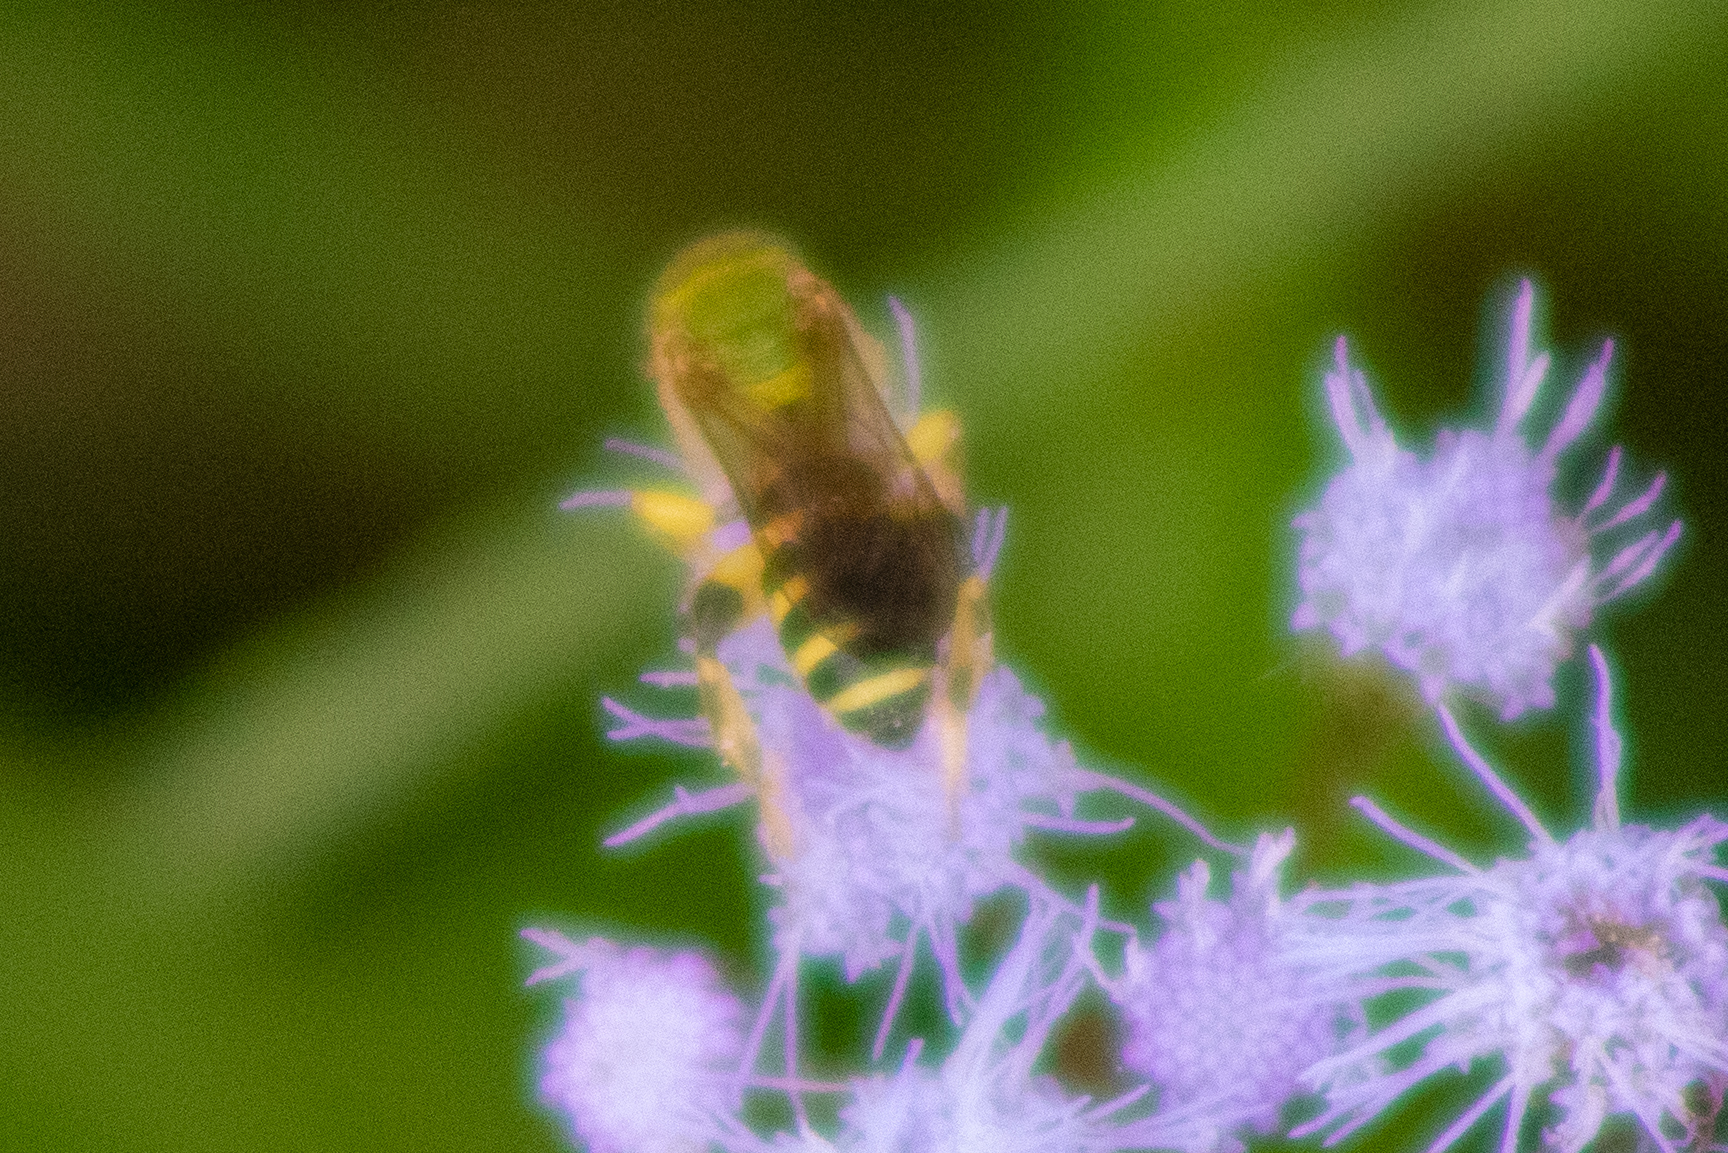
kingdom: Animalia
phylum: Arthropoda
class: Insecta
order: Hymenoptera
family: Halictidae
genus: Agapostemon
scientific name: Agapostemon splendens
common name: Brown-winged striped sweat bee
